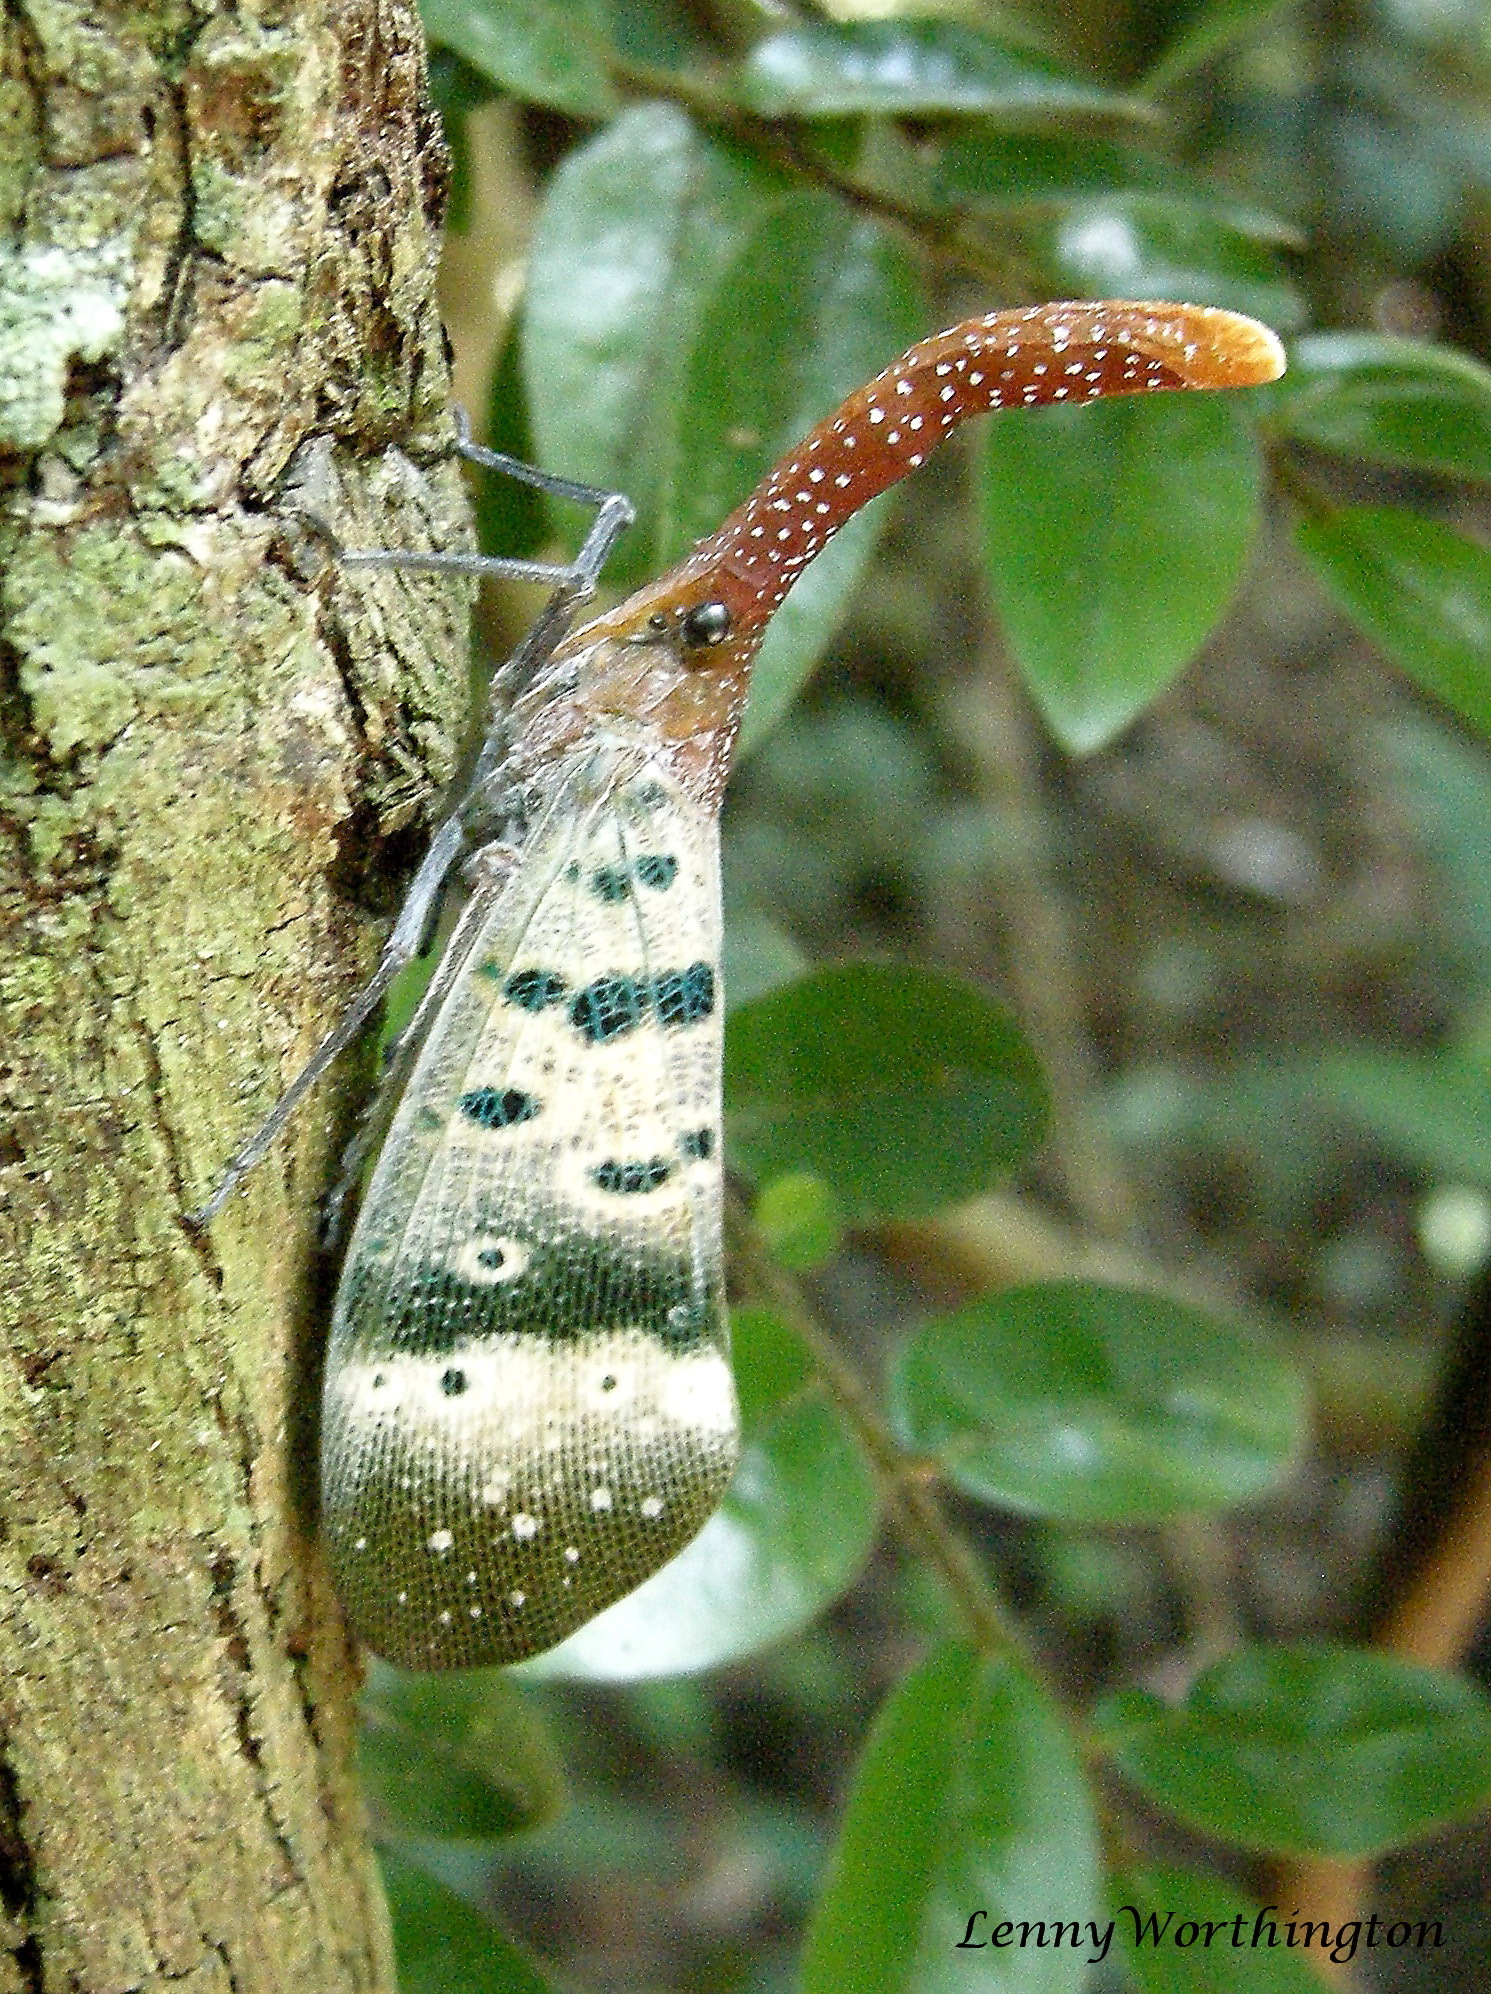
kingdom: Animalia
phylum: Arthropoda
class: Insecta
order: Hemiptera
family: Fulgoridae
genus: Pyrops
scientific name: Pyrops ducalis
